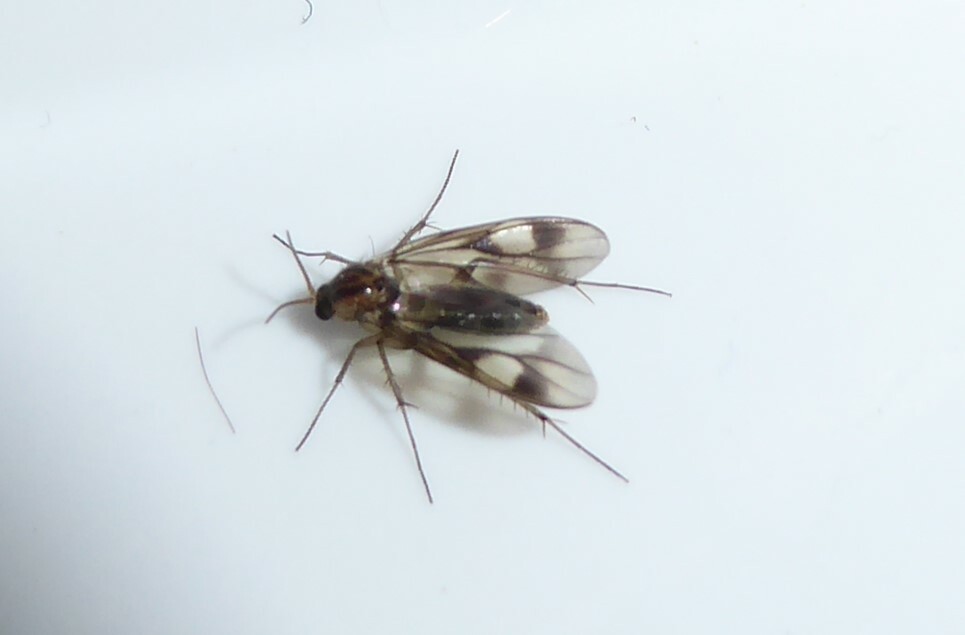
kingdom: Animalia
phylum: Arthropoda
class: Insecta
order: Diptera
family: Mycetophilidae
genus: Anomalomyia
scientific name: Anomalomyia guttata
